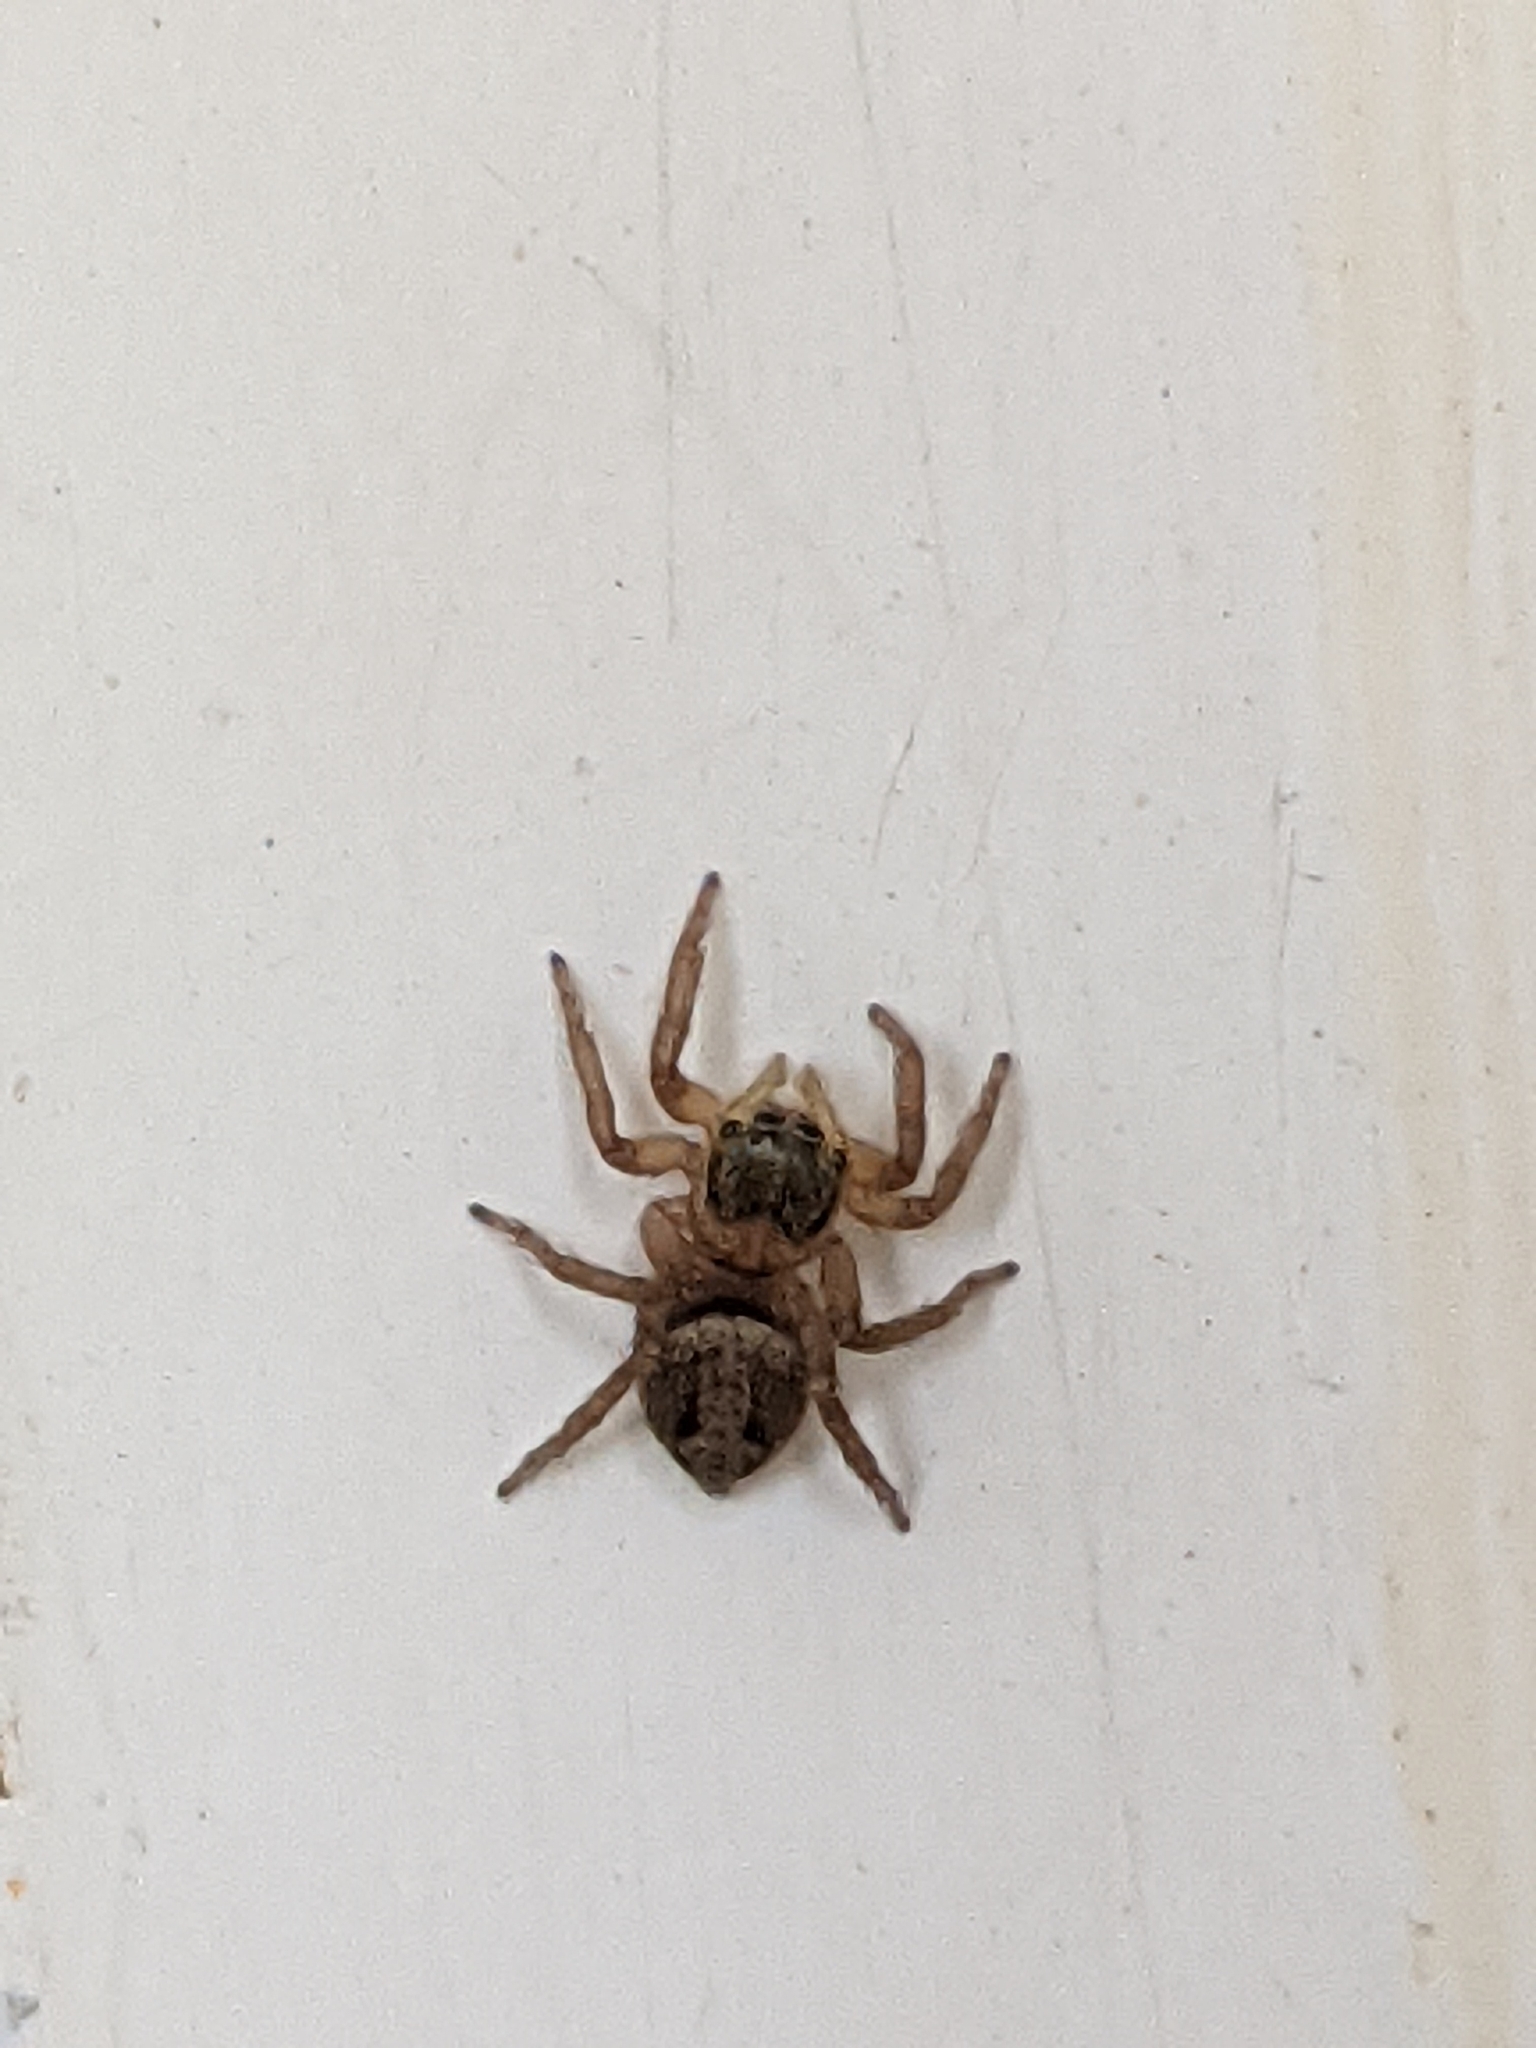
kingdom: Animalia
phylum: Arthropoda
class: Arachnida
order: Araneae
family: Salticidae
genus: Hasarius
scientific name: Hasarius adansoni
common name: Jumping spider
